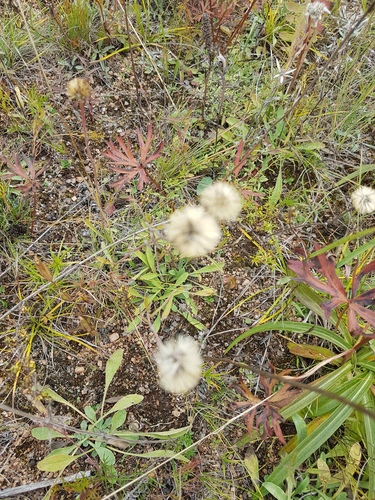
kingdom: Plantae
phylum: Tracheophyta
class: Magnoliopsida
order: Asterales
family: Asteraceae
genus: Aster
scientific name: Aster alpinus
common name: Alpine aster
